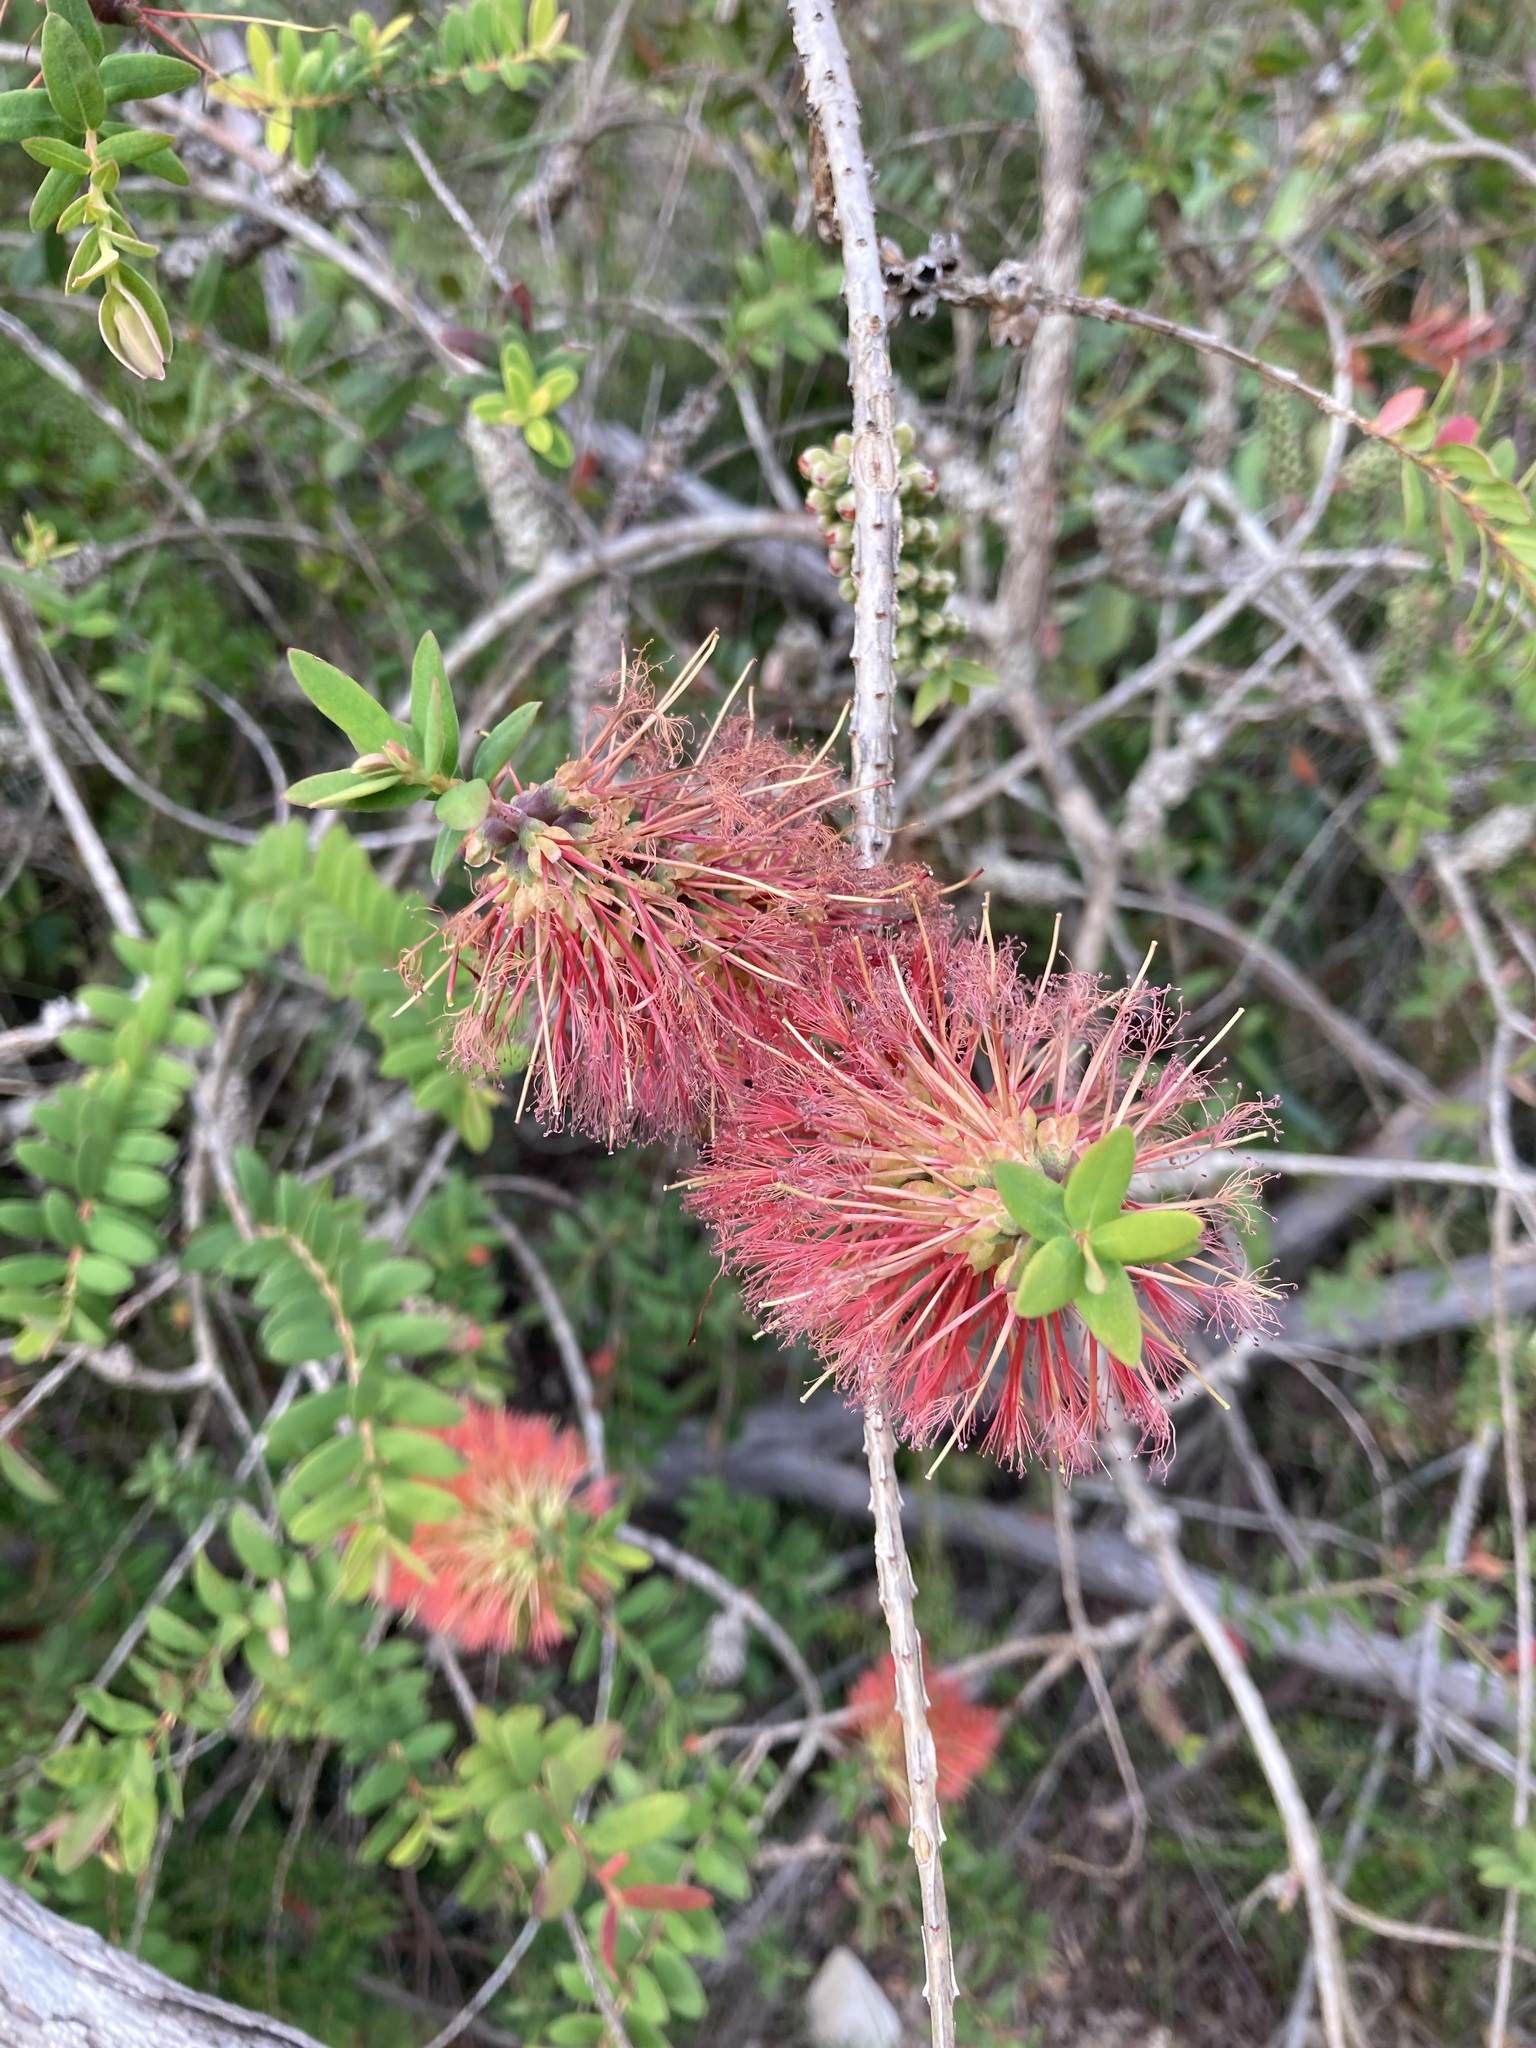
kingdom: Plantae
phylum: Tracheophyta
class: Magnoliopsida
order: Myrtales
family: Myrtaceae
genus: Melaleuca
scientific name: Melaleuca hypericifolia
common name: Red honey myrtle
